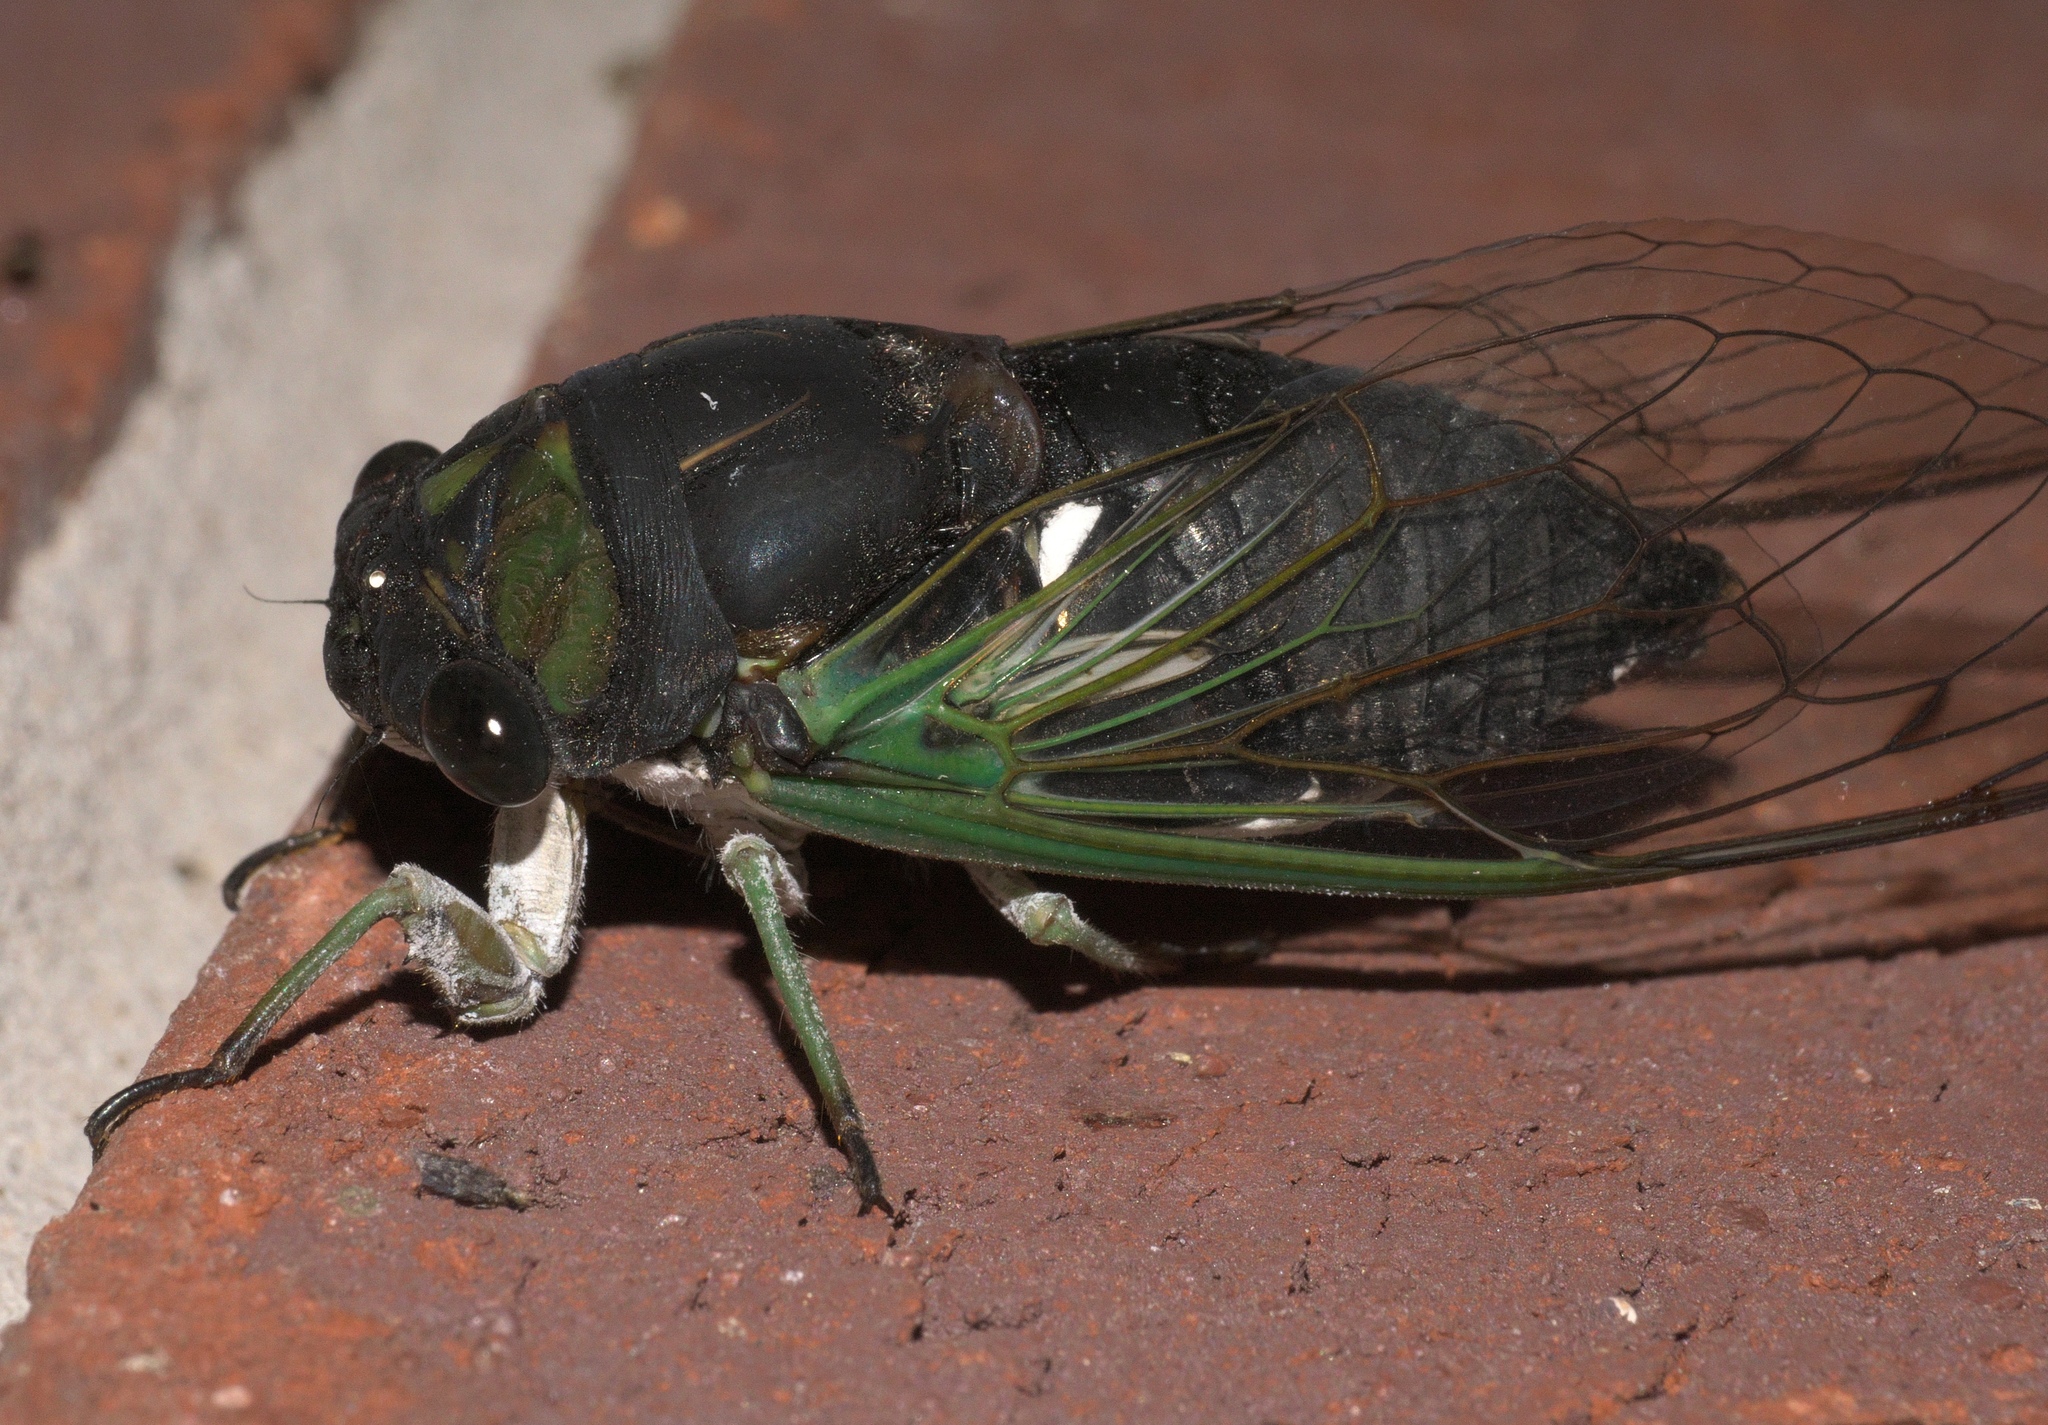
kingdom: Animalia
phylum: Arthropoda
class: Insecta
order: Hemiptera
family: Cicadidae
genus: Neotibicen
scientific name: Neotibicen tibicen
